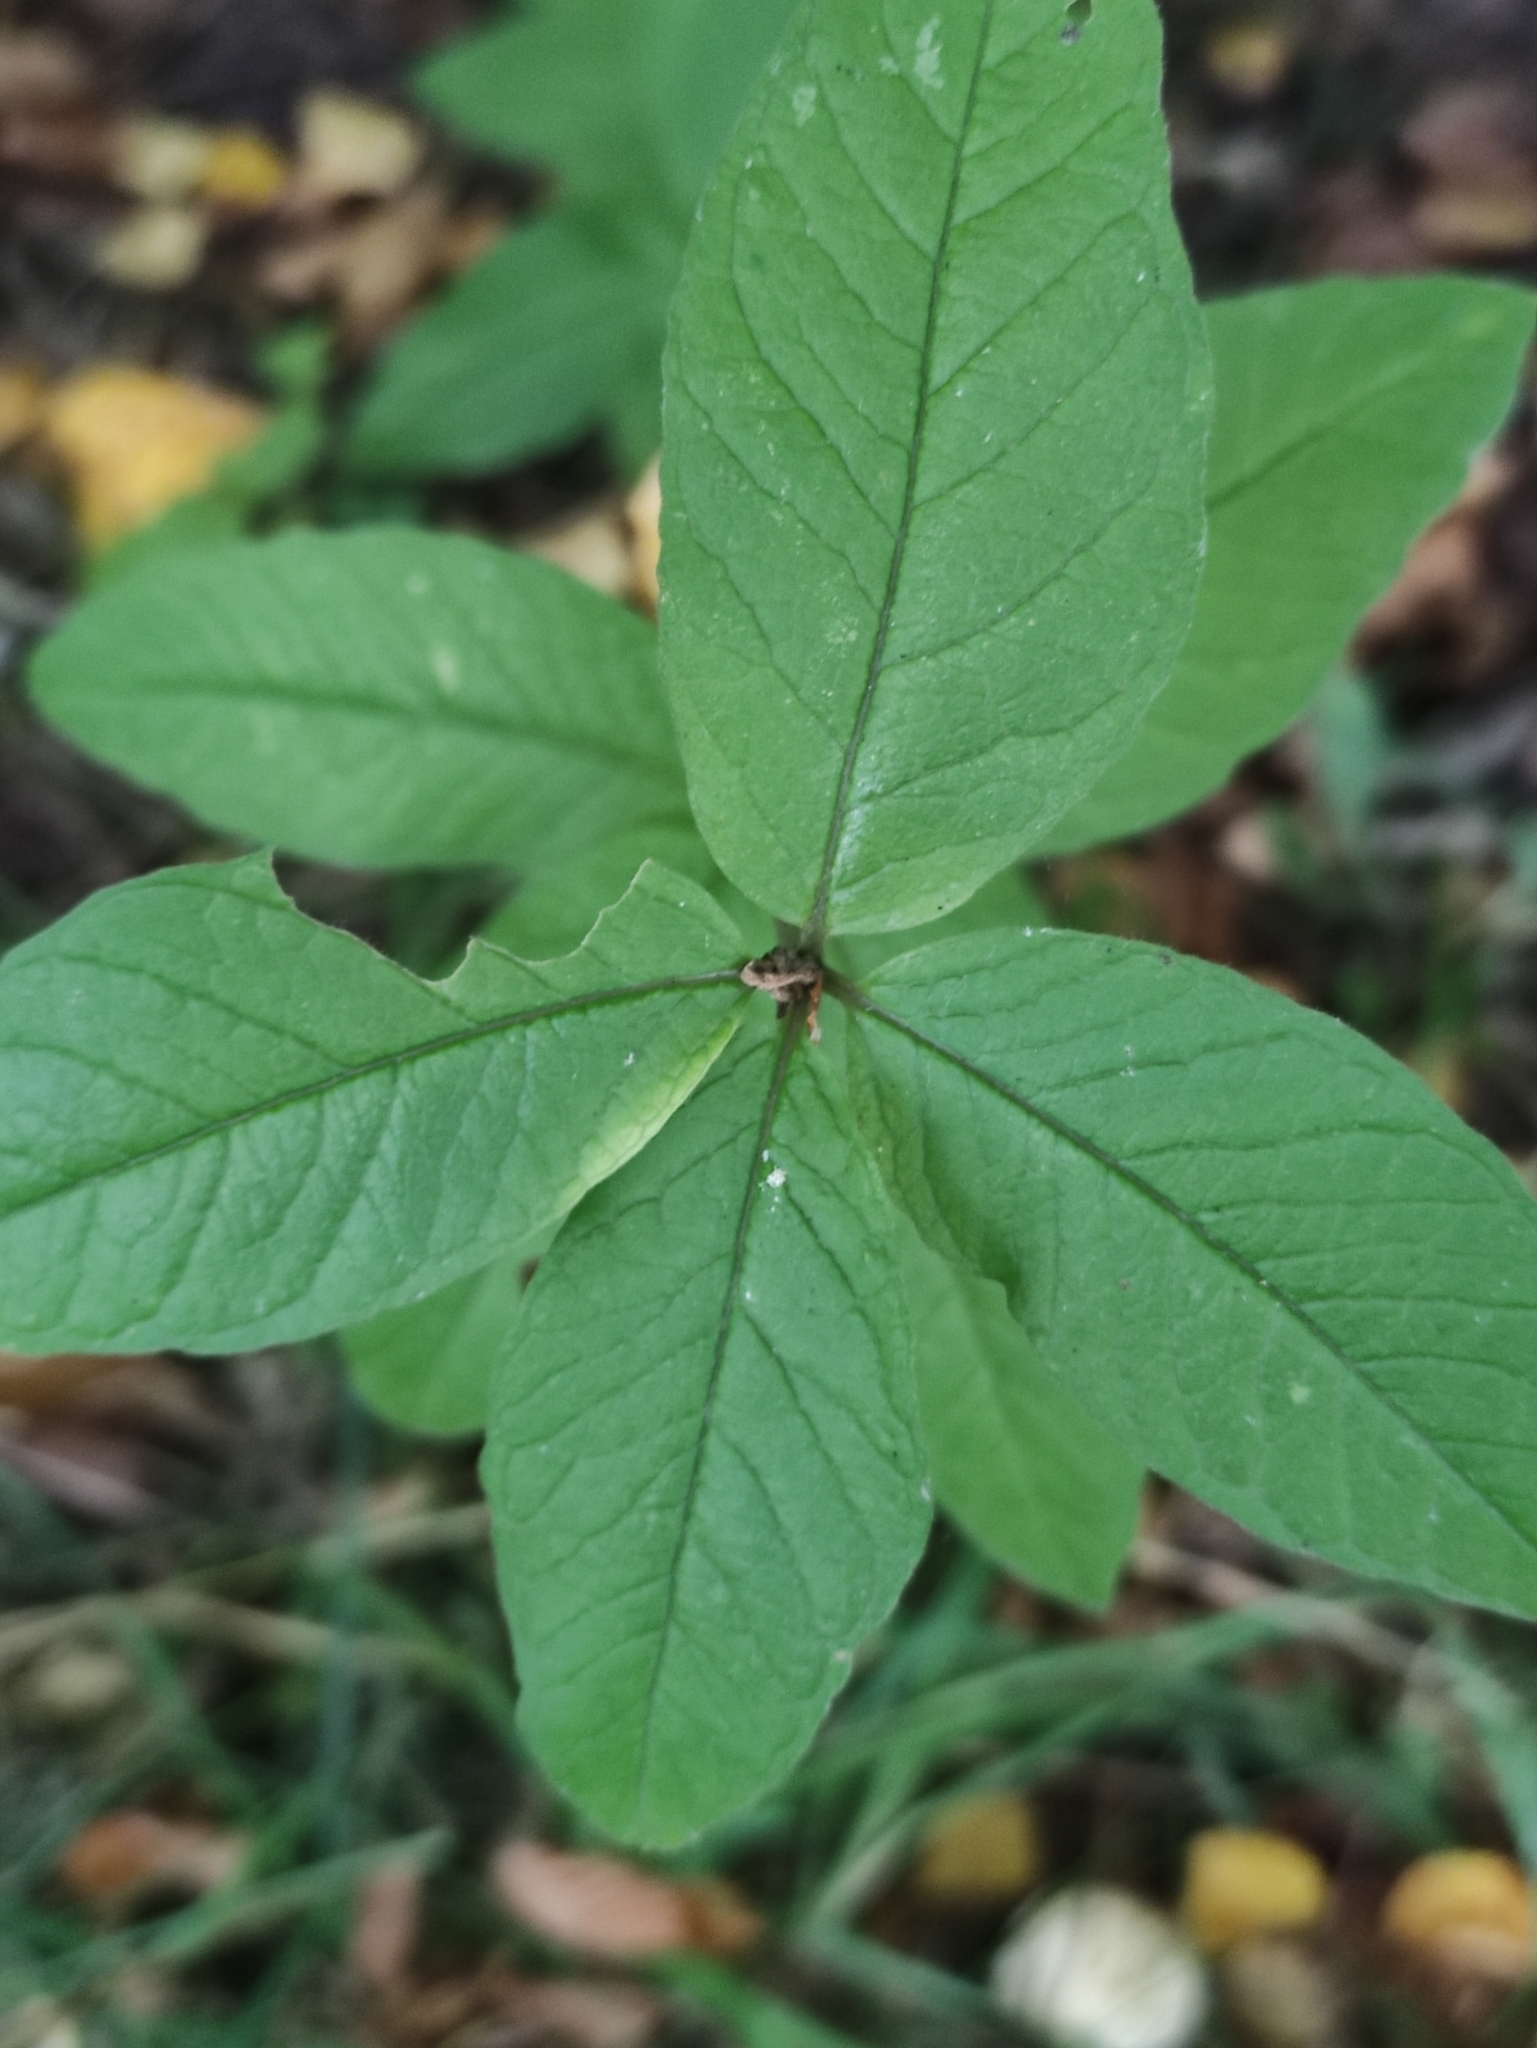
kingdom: Plantae
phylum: Tracheophyta
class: Magnoliopsida
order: Ericales
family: Primulaceae
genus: Lysimachia
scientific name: Lysimachia vulgaris
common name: Yellow loosestrife
